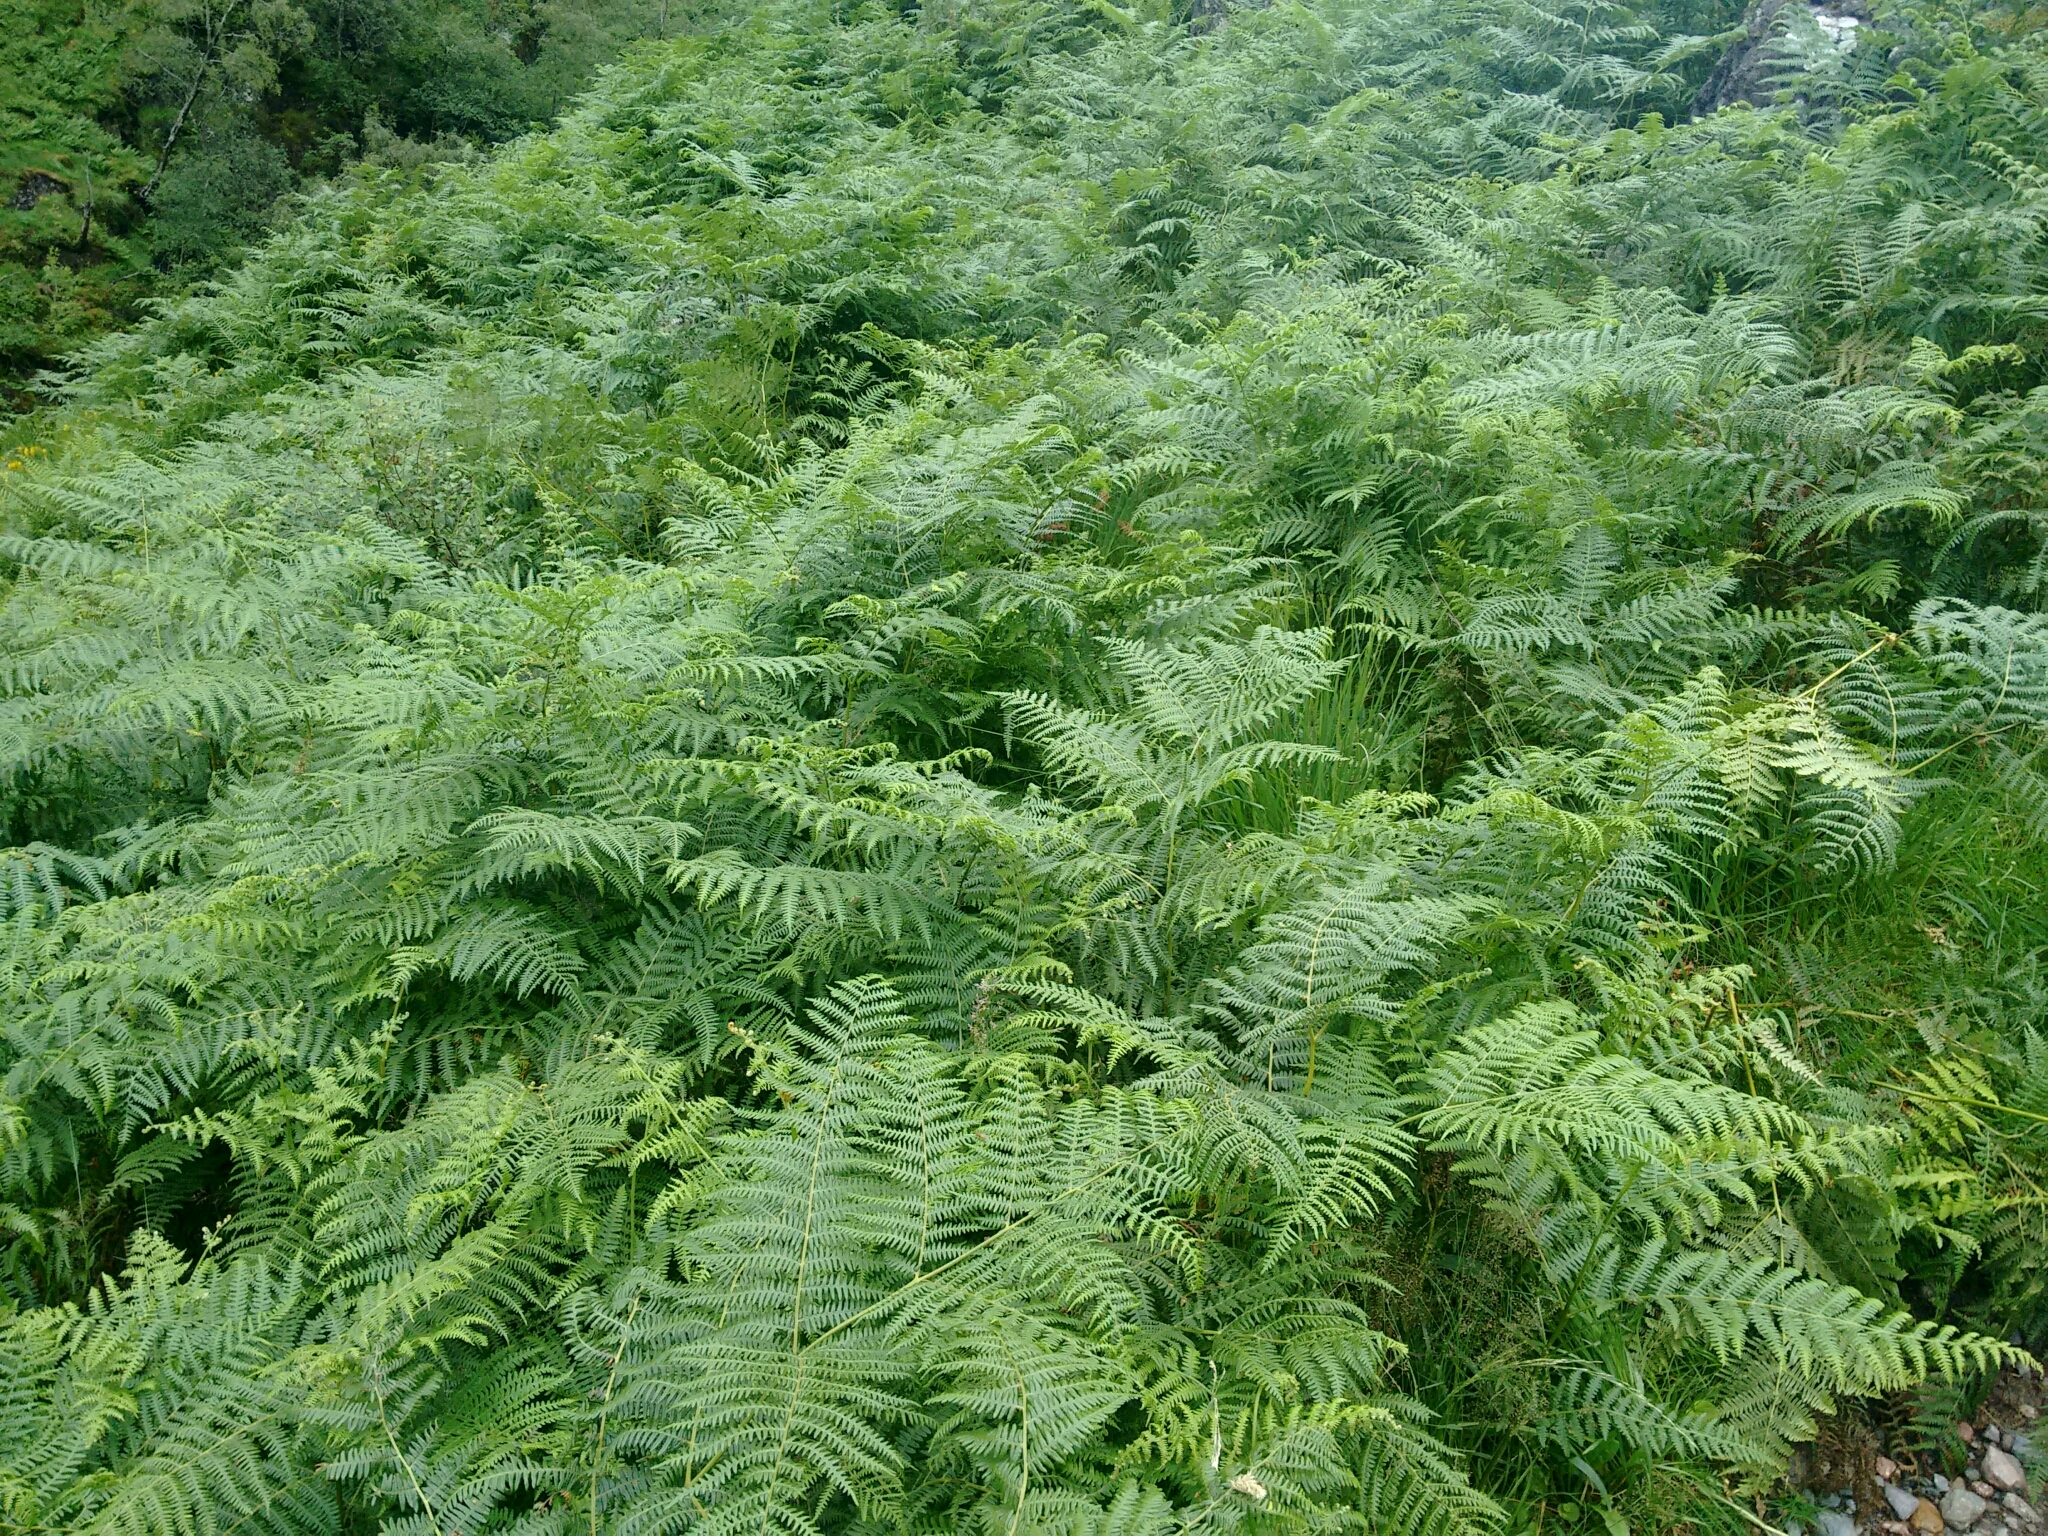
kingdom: Plantae
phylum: Tracheophyta
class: Polypodiopsida
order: Polypodiales
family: Dennstaedtiaceae
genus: Pteridium
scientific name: Pteridium aquilinum
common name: Bracken
